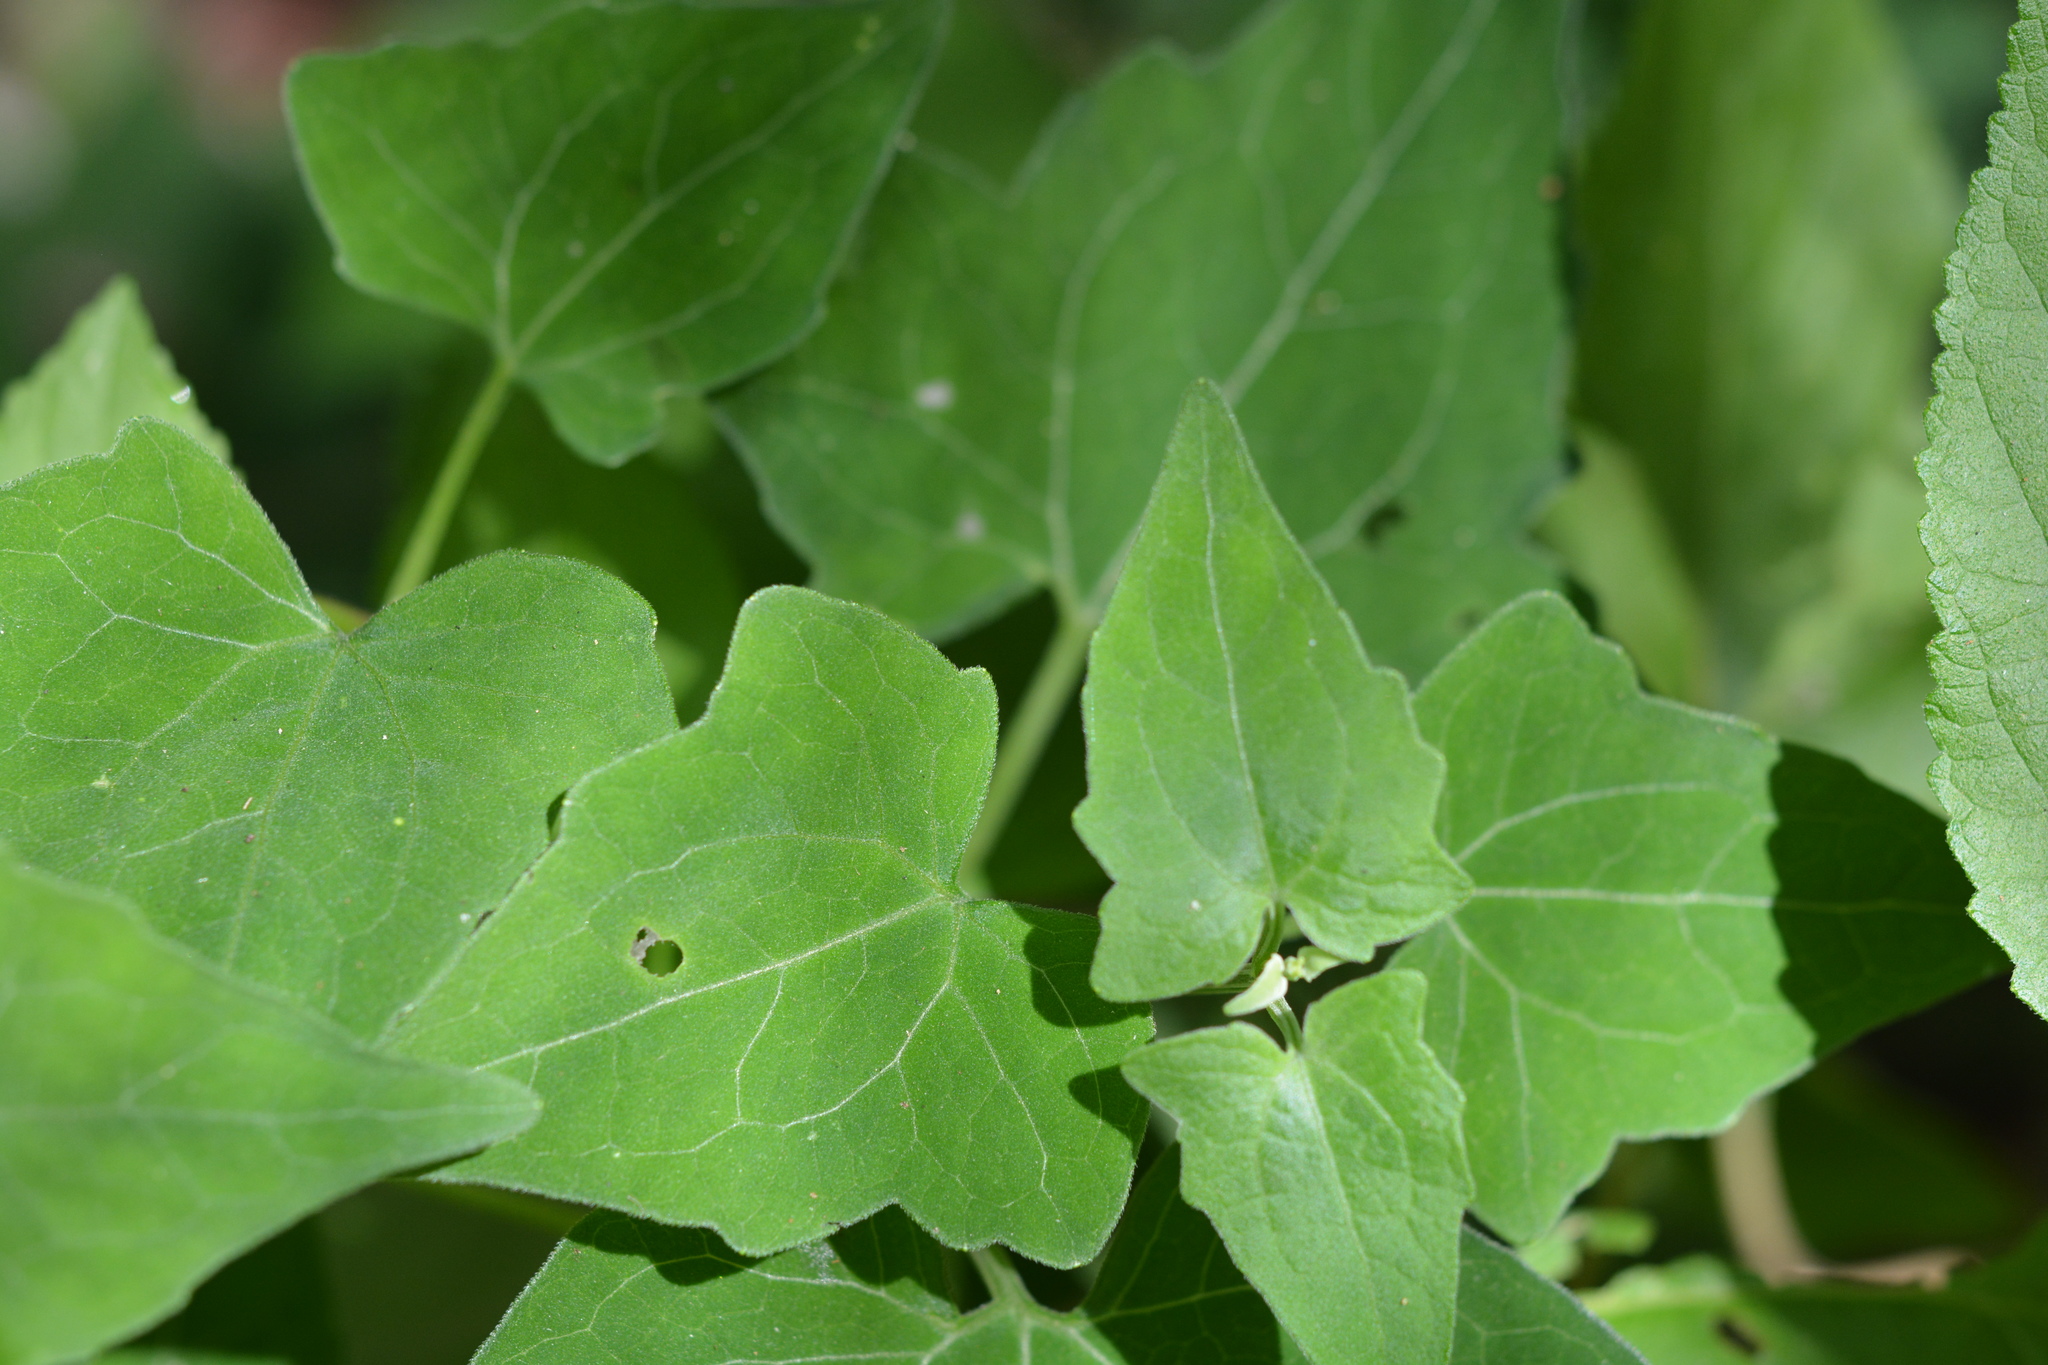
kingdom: Plantae
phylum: Tracheophyta
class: Magnoliopsida
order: Asterales
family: Asteraceae
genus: Mikania
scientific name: Mikania cordifolia
